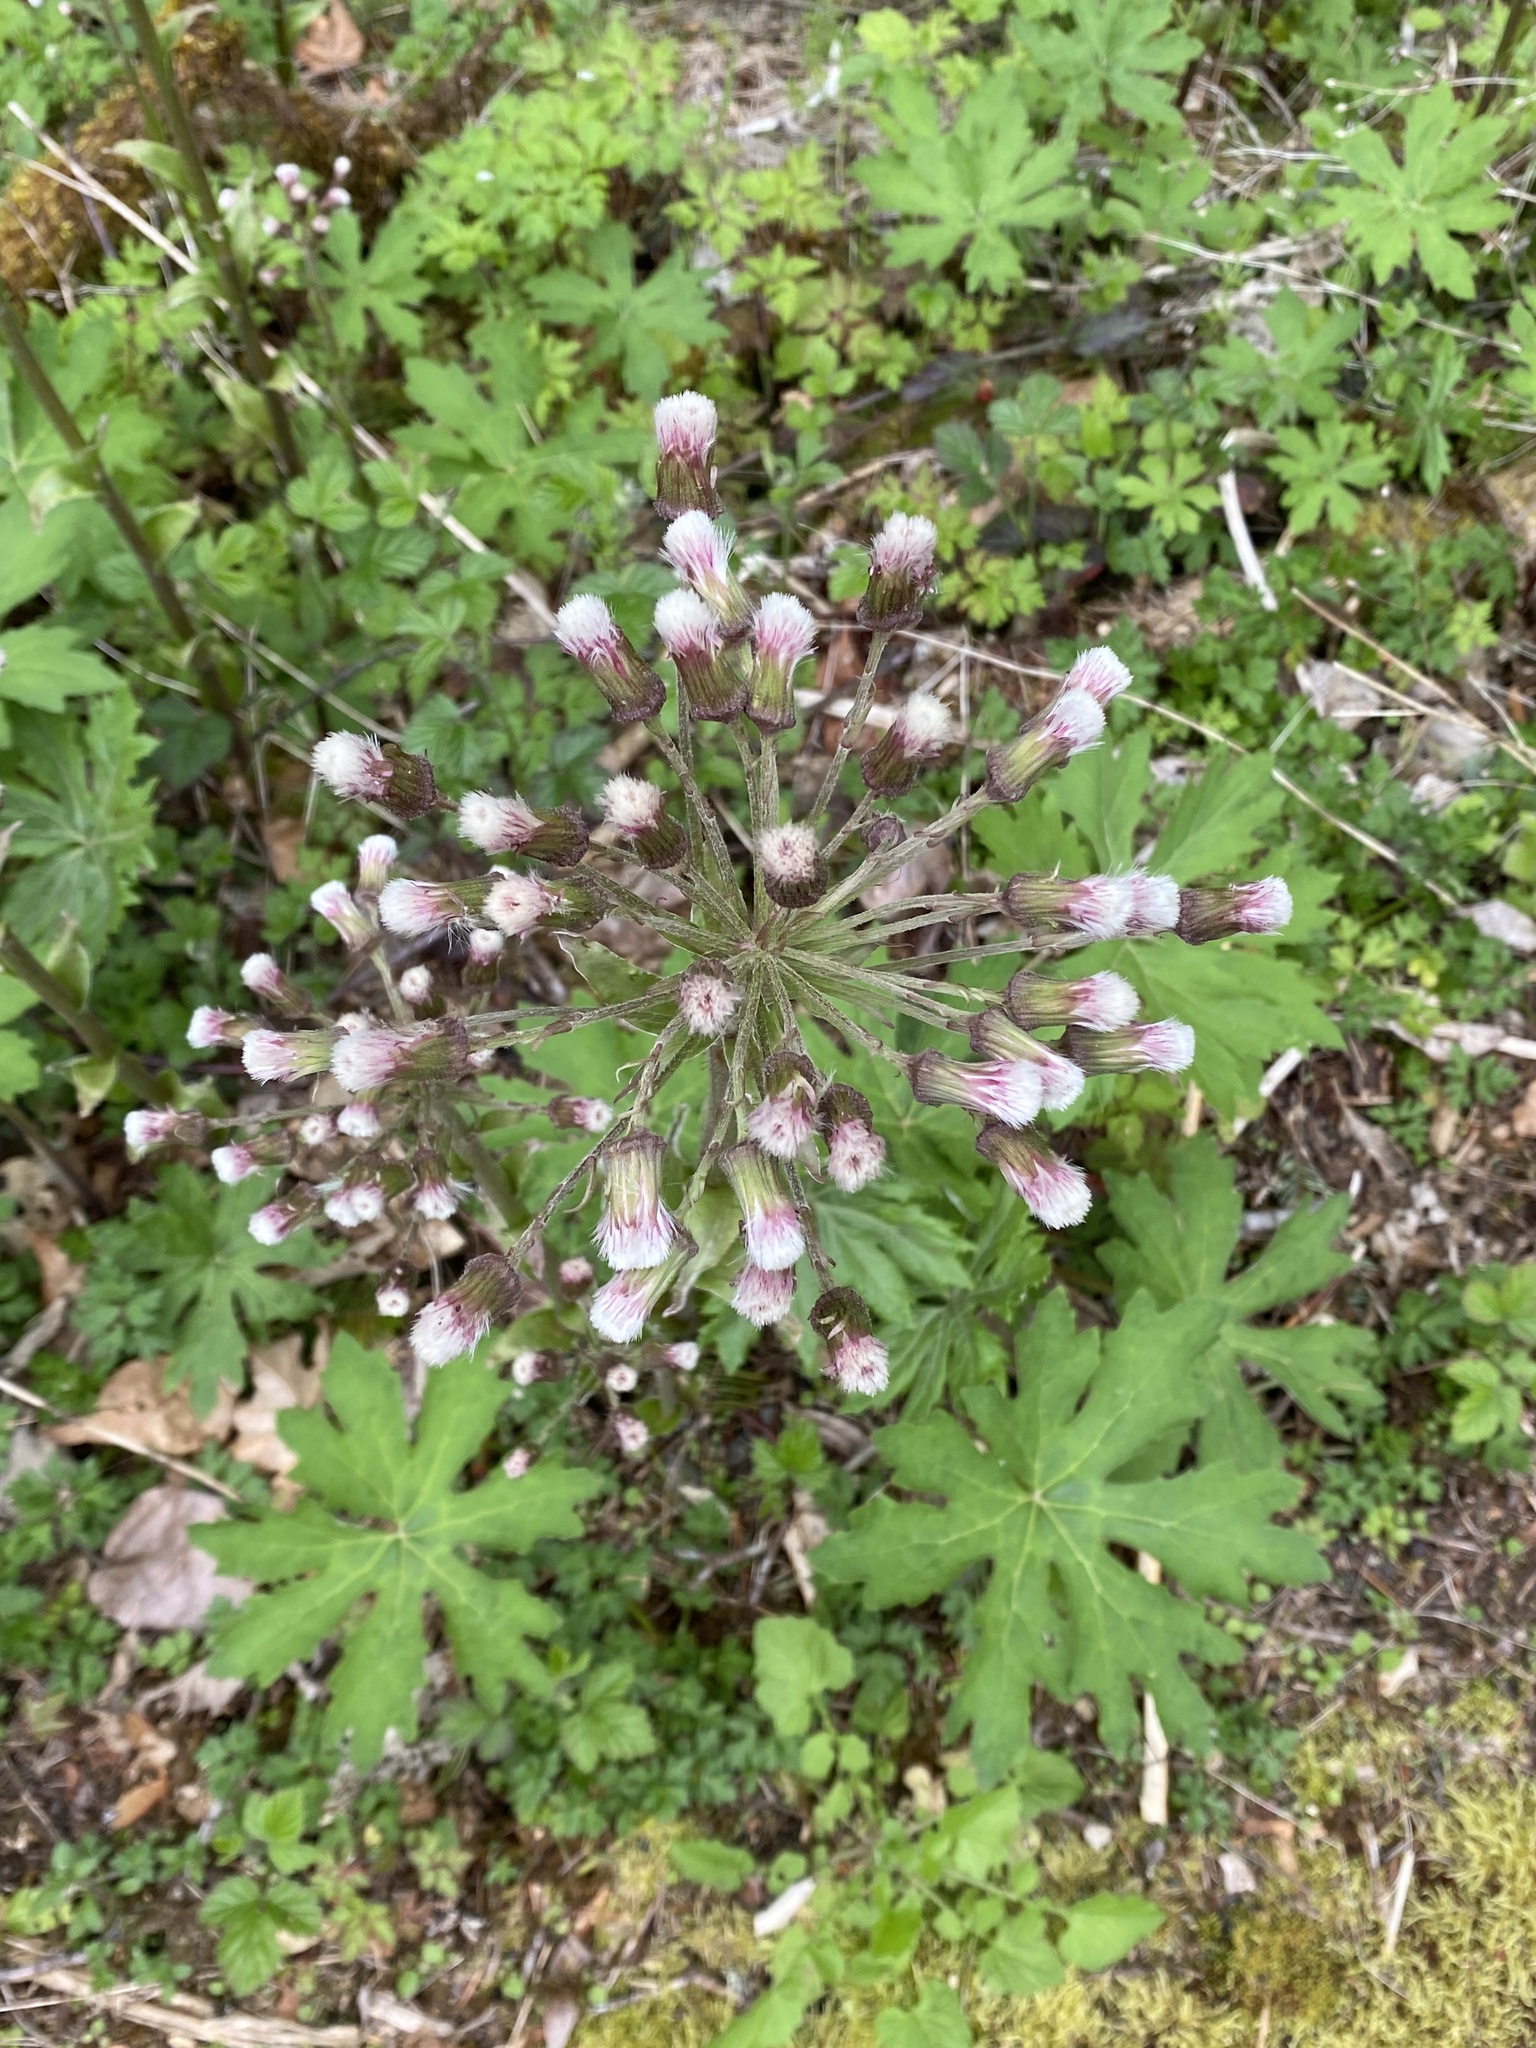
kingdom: Plantae
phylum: Tracheophyta
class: Magnoliopsida
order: Asterales
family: Asteraceae
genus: Petasites
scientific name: Petasites frigidus
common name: Arctic butterbur
